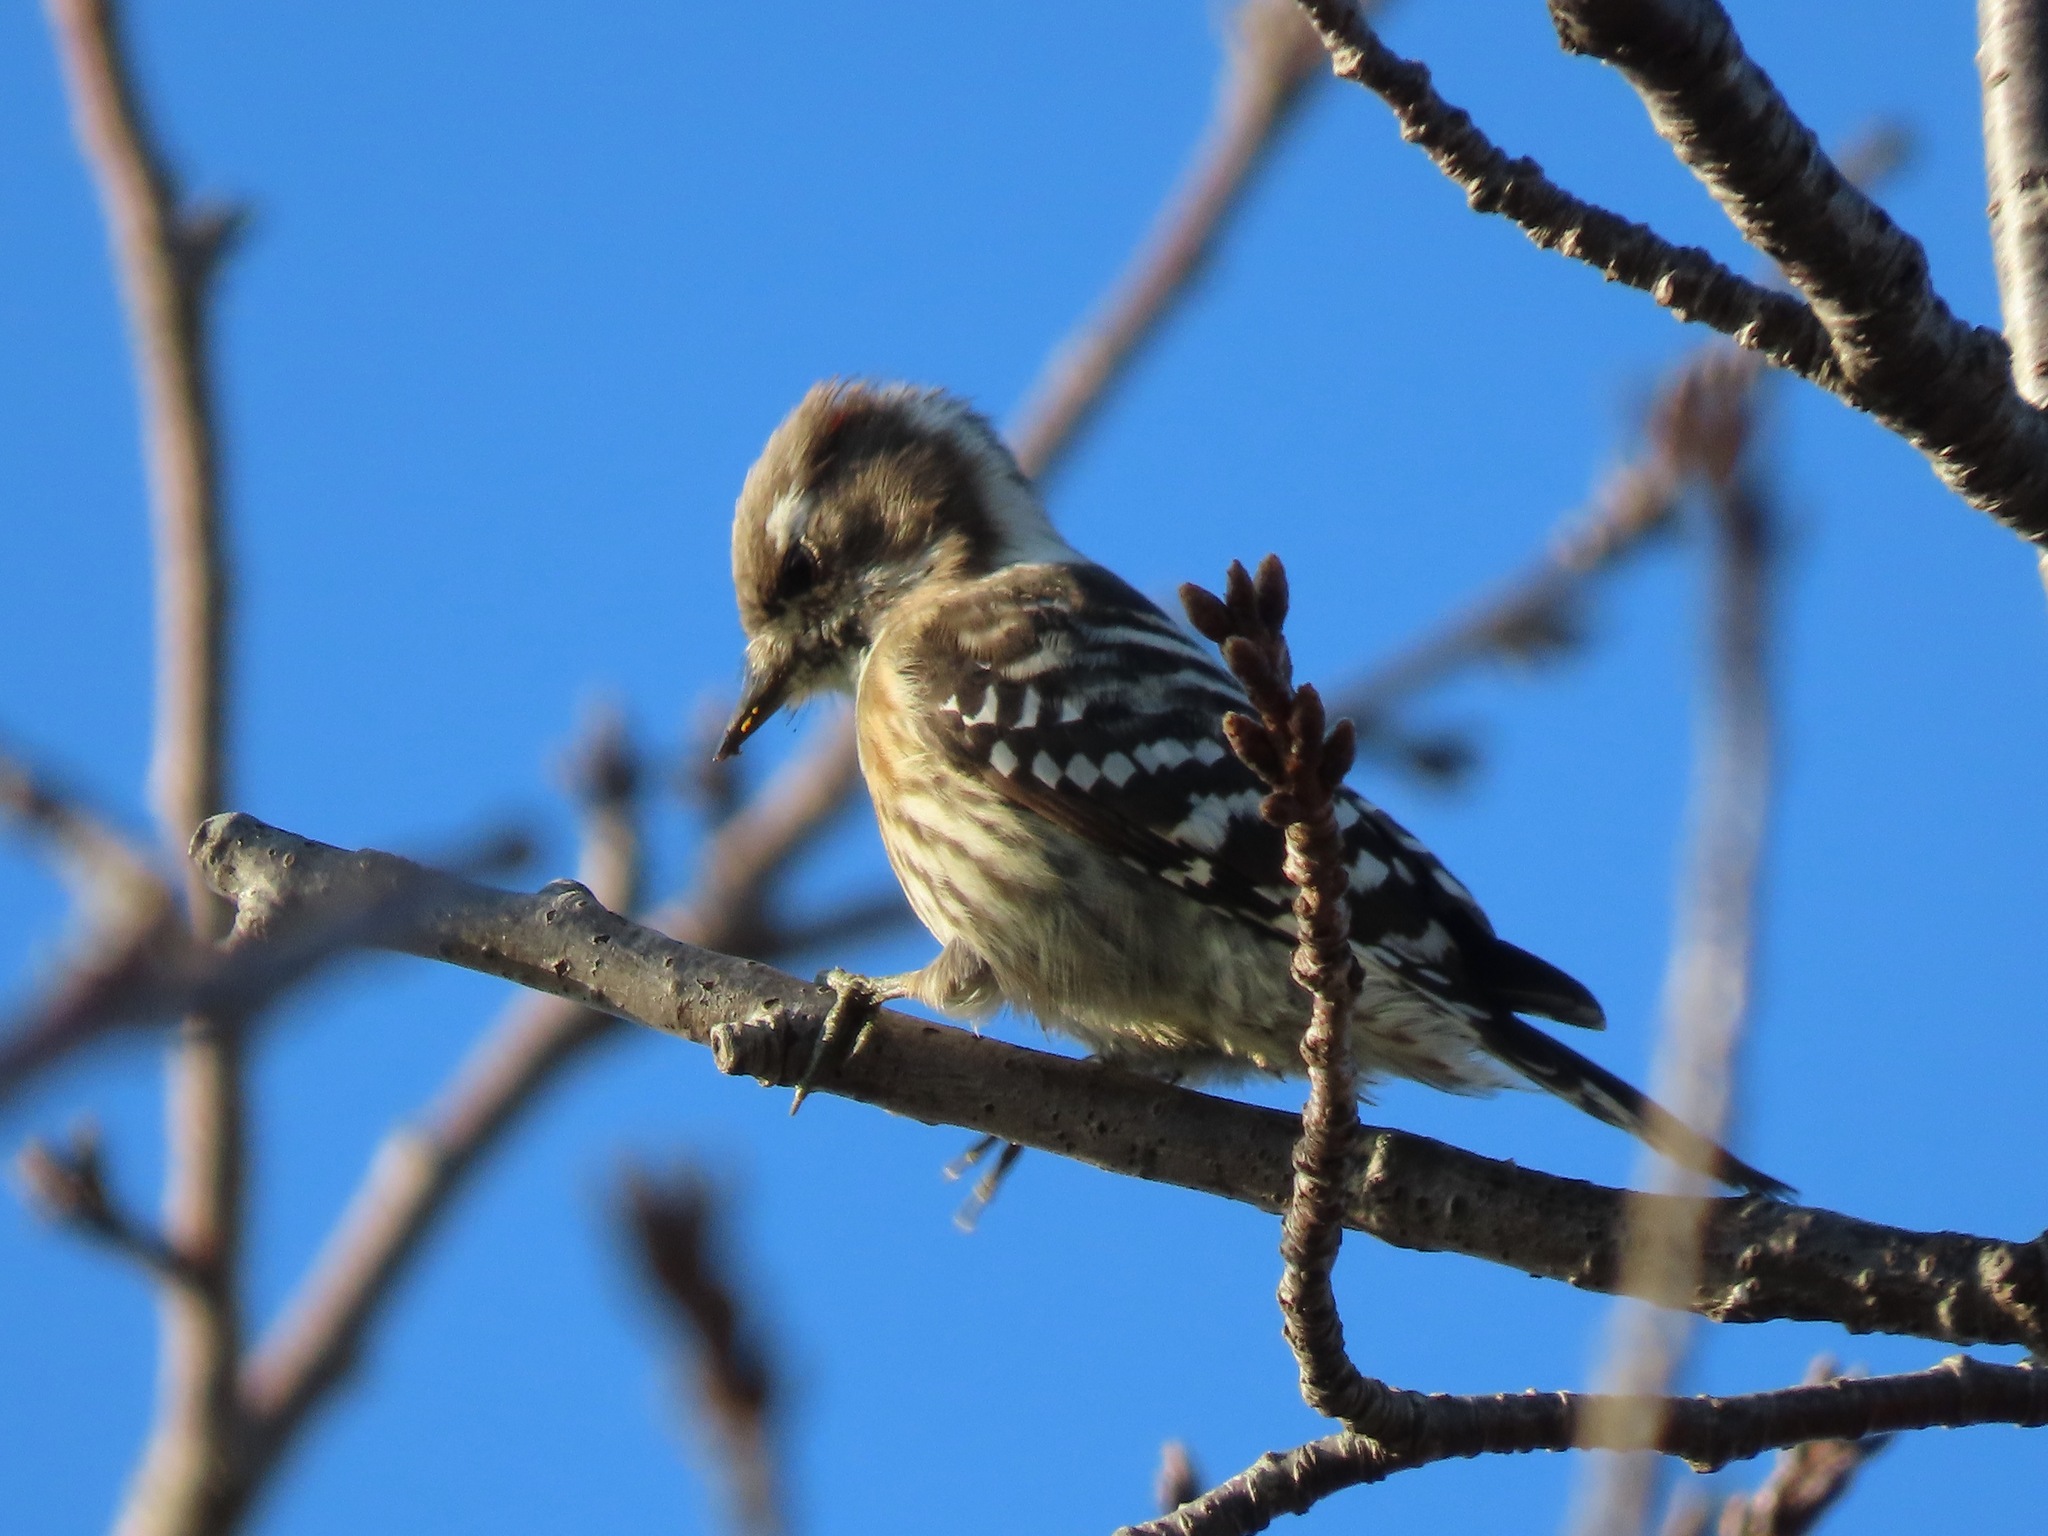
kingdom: Animalia
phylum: Chordata
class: Aves
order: Piciformes
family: Picidae
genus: Yungipicus
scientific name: Yungipicus kizuki
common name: Japanese pygmy woodpecker
